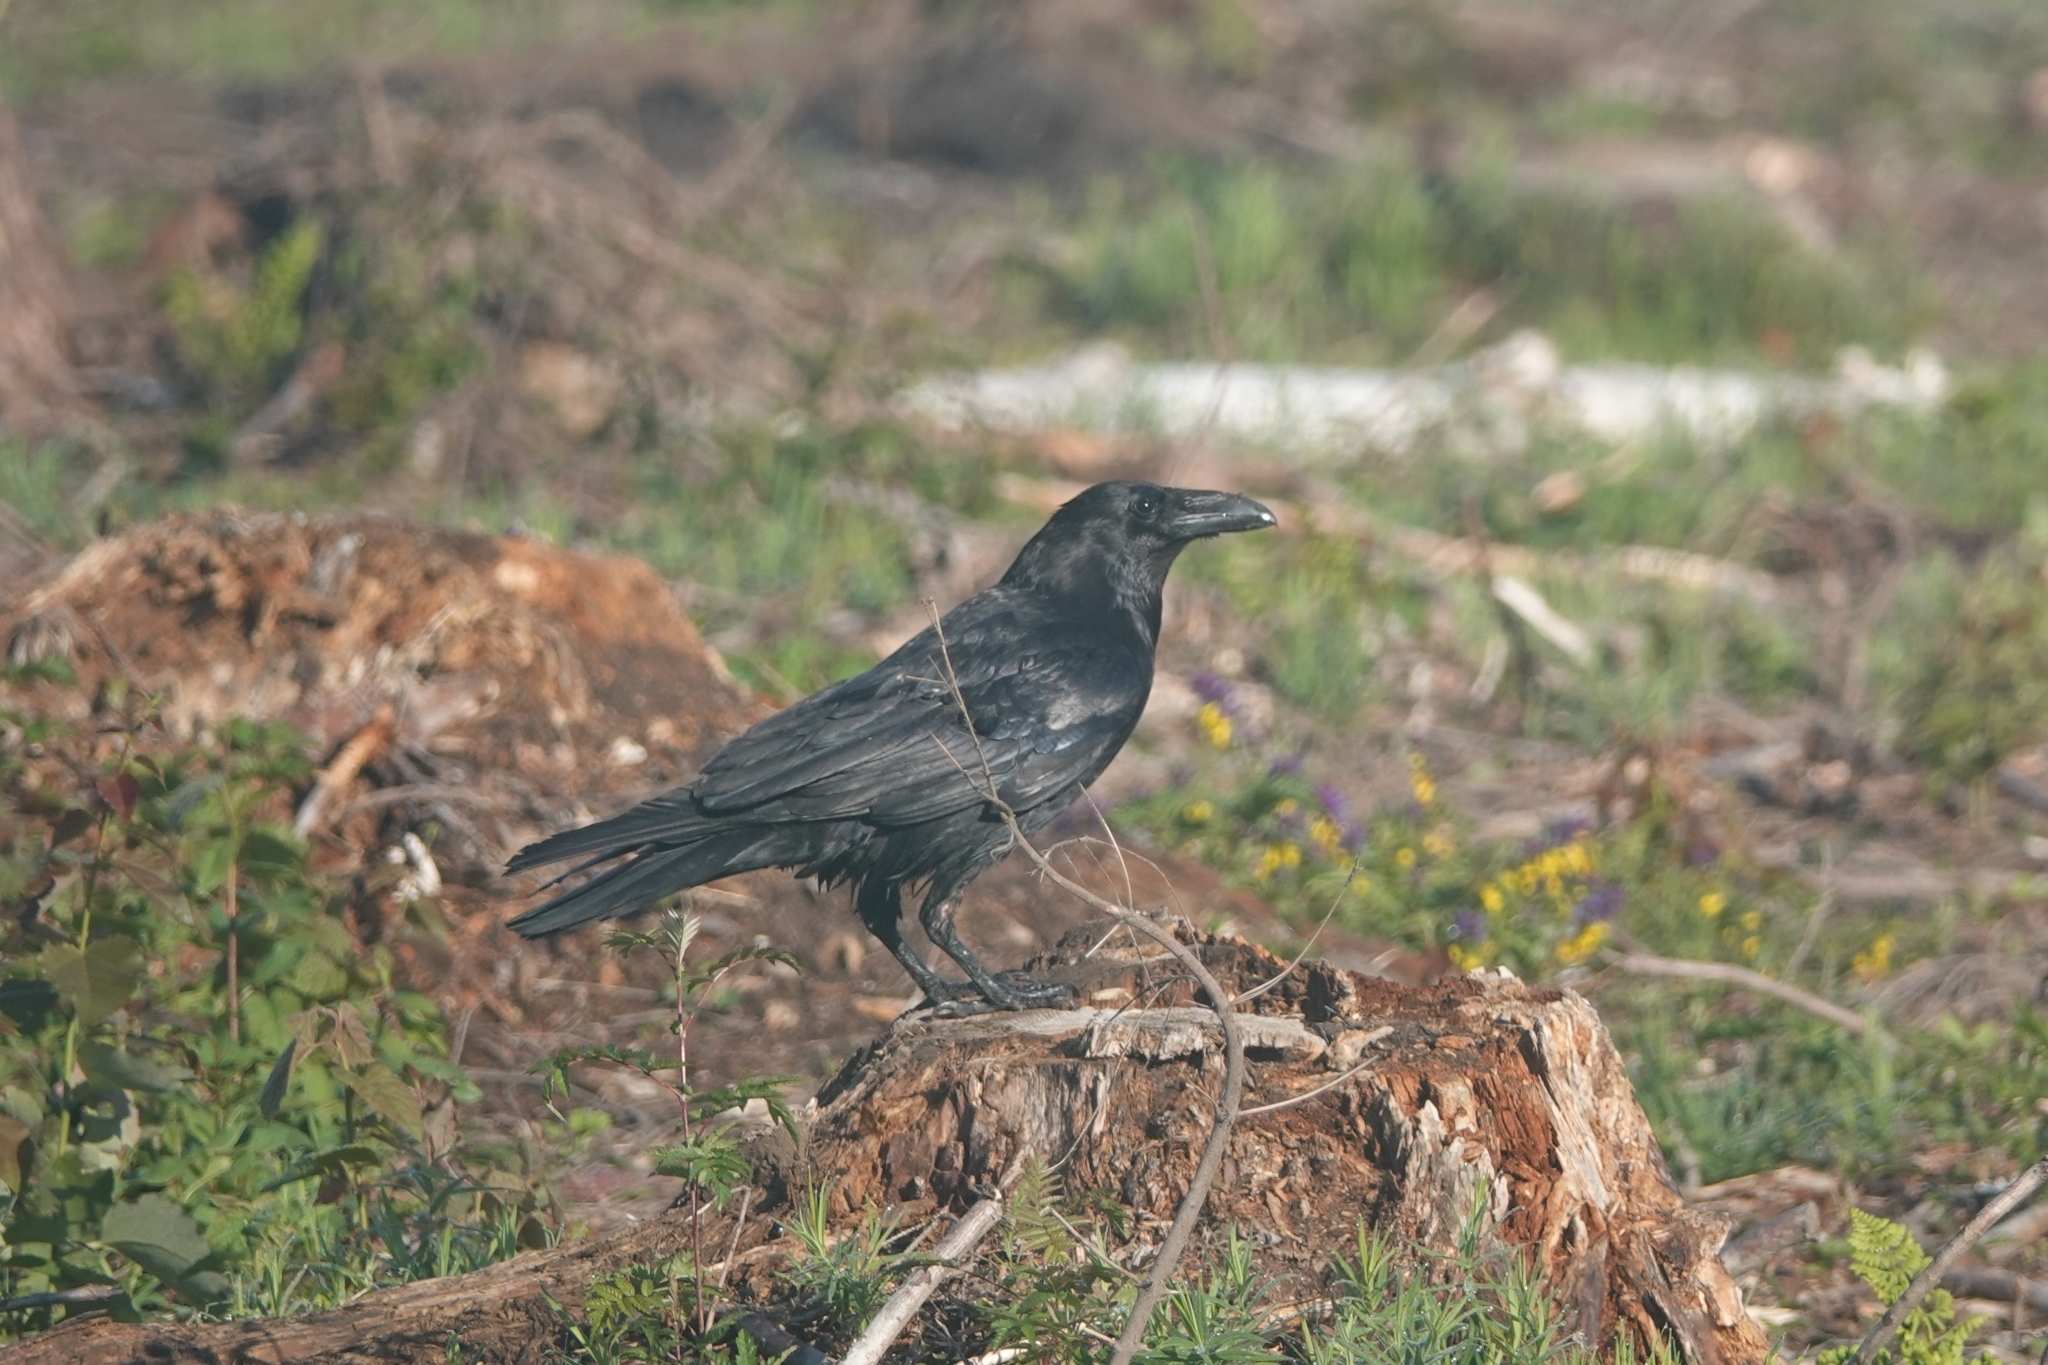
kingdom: Animalia
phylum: Chordata
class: Aves
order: Passeriformes
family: Corvidae
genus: Corvus
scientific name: Corvus corax
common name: Common raven
